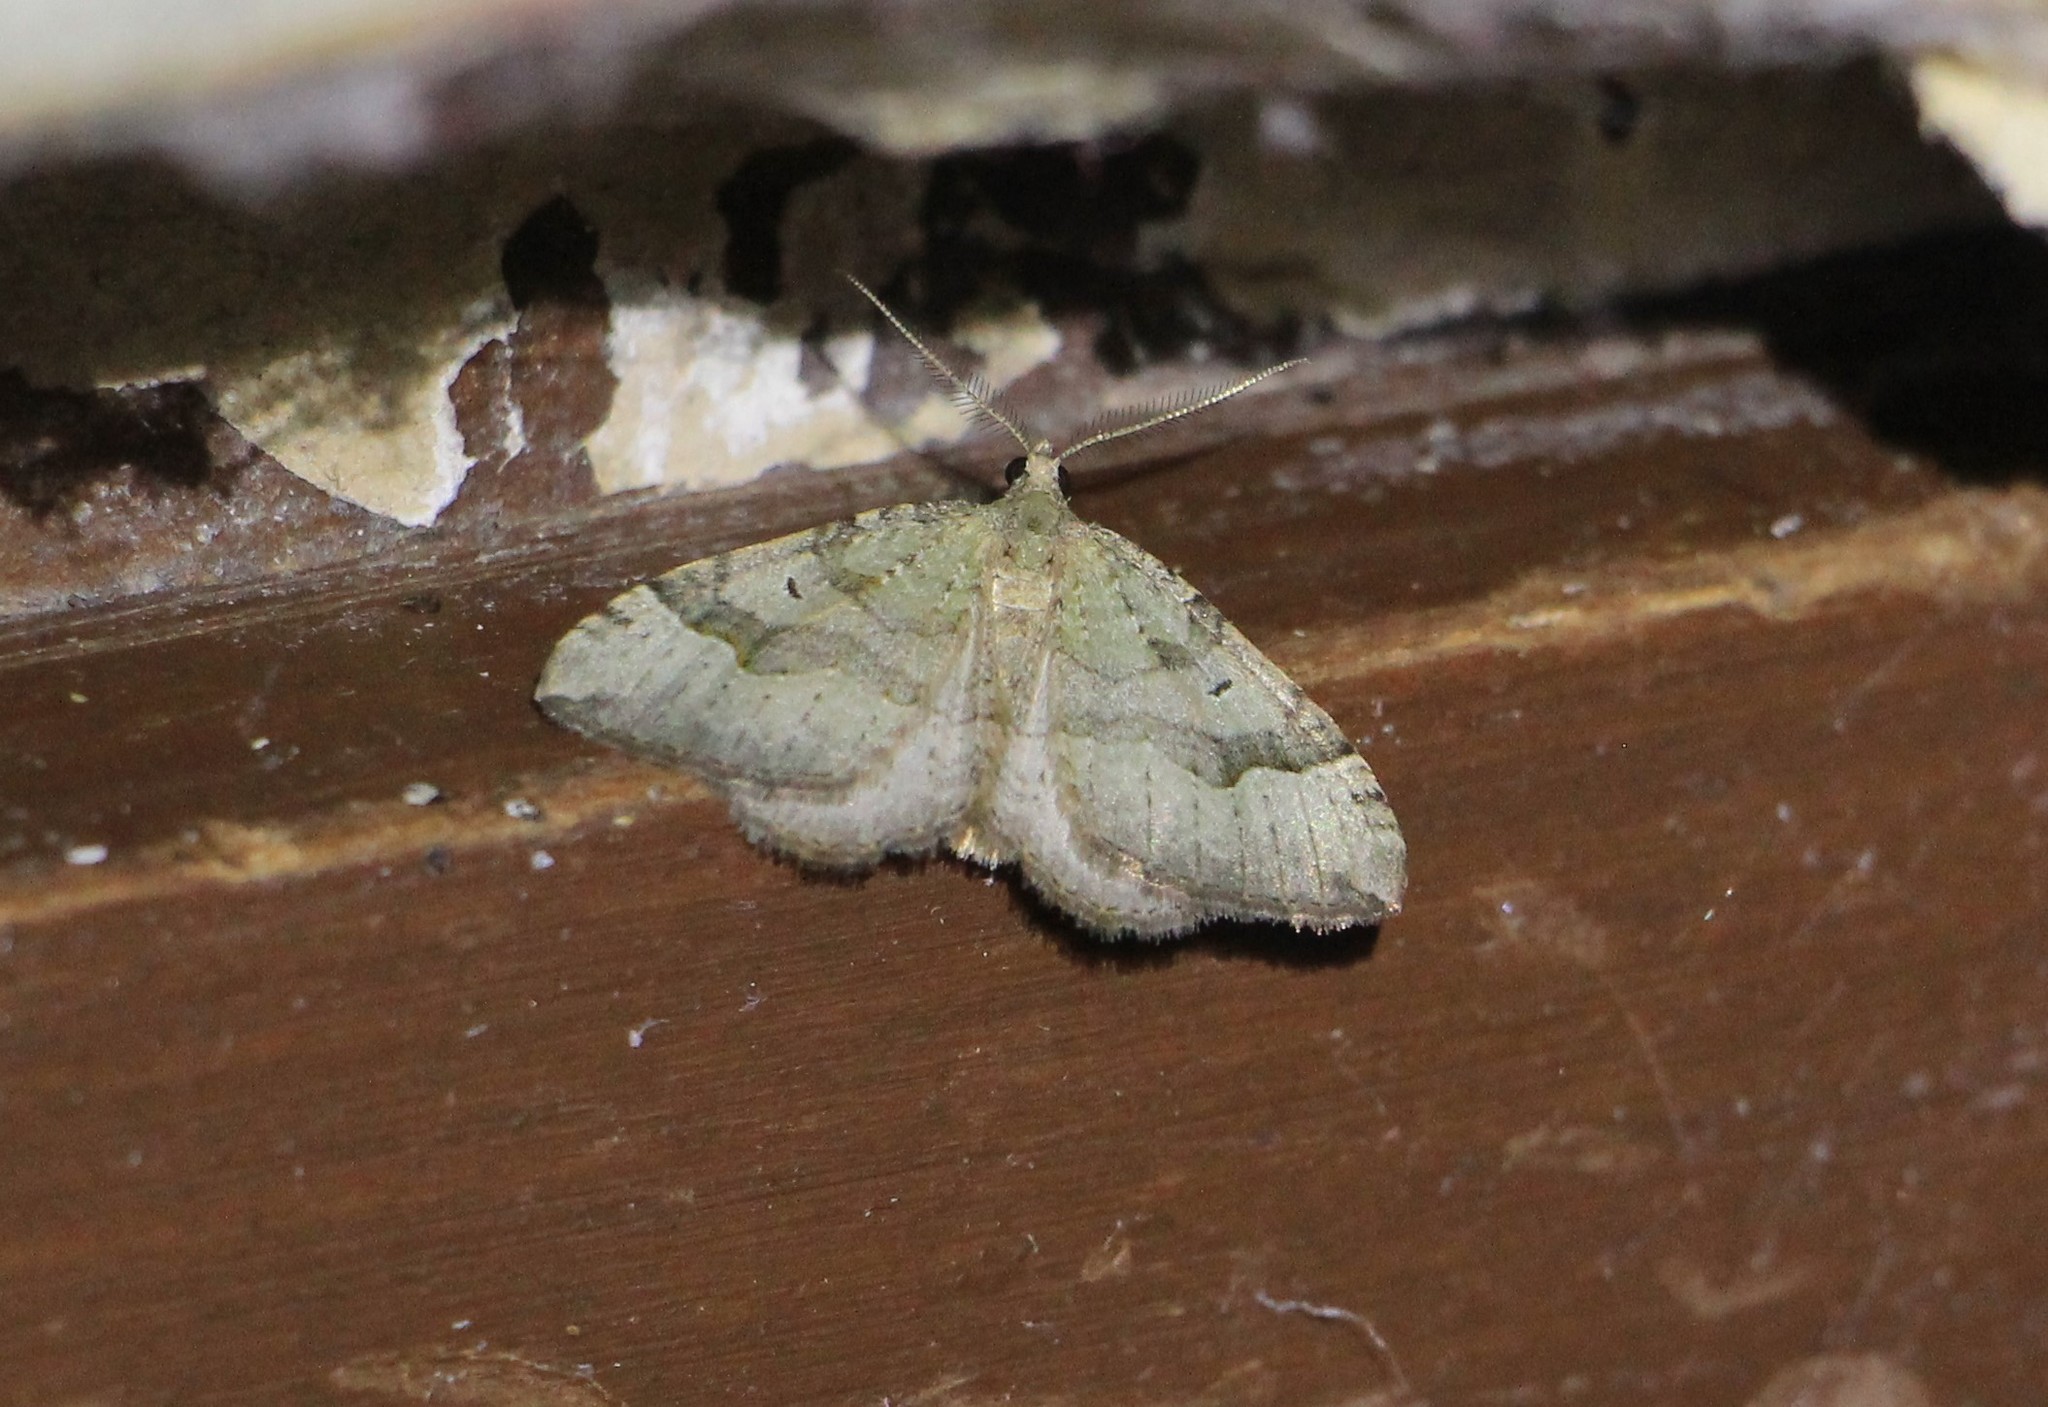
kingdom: Animalia
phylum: Arthropoda
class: Insecta
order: Lepidoptera
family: Geometridae
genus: Epyaxa
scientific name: Epyaxa rosearia
